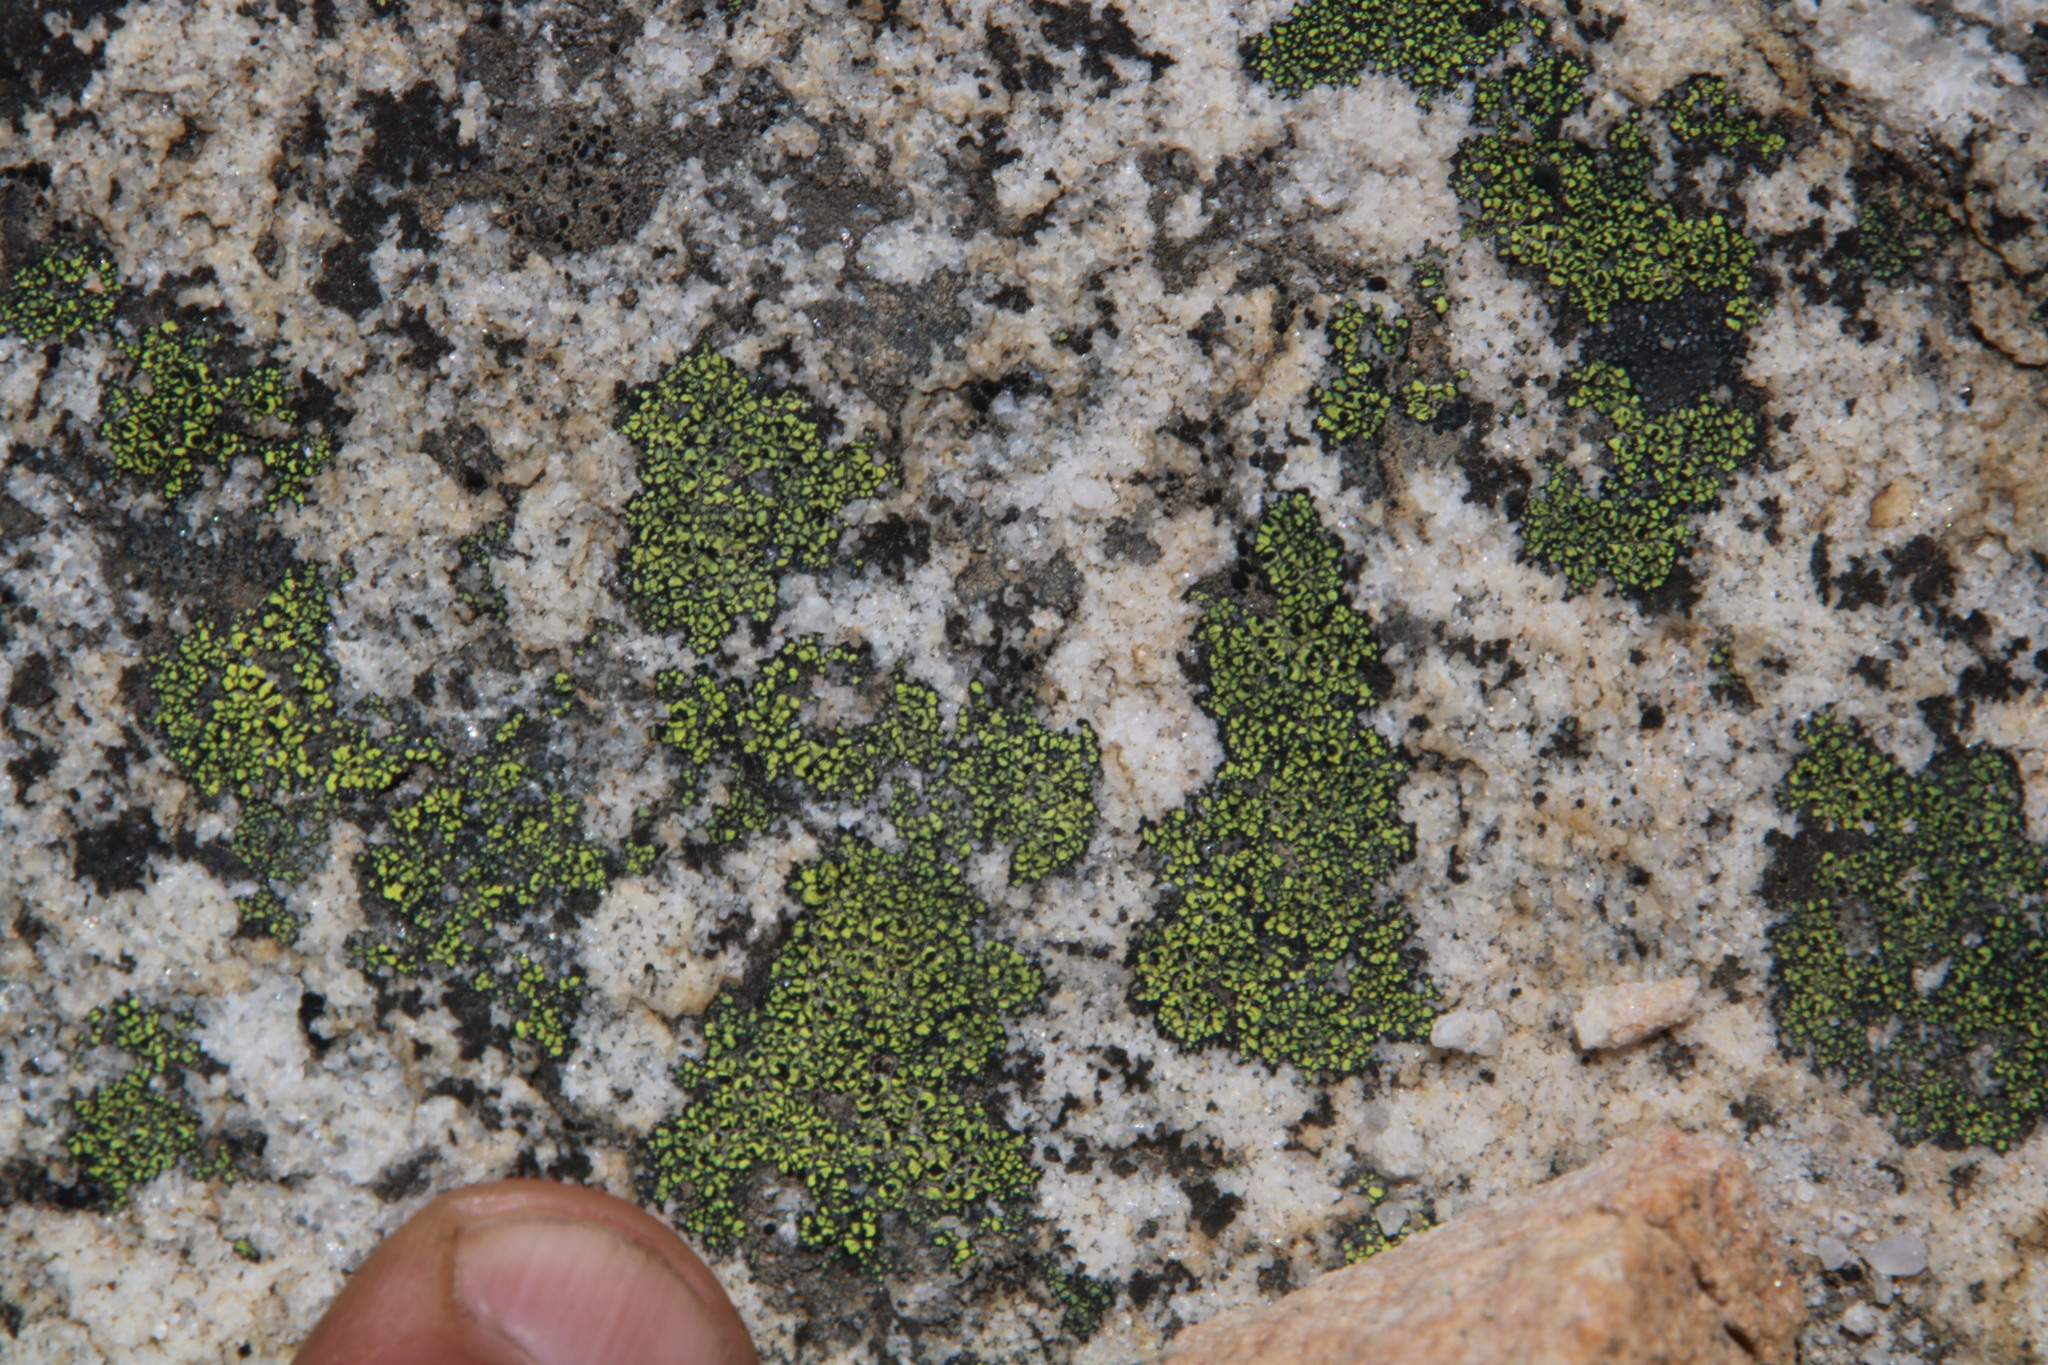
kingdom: Fungi
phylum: Ascomycota
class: Lecanoromycetes
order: Rhizocarpales
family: Rhizocarpaceae
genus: Rhizocarpon
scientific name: Rhizocarpon lecanorinum
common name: Crescent map lichen
